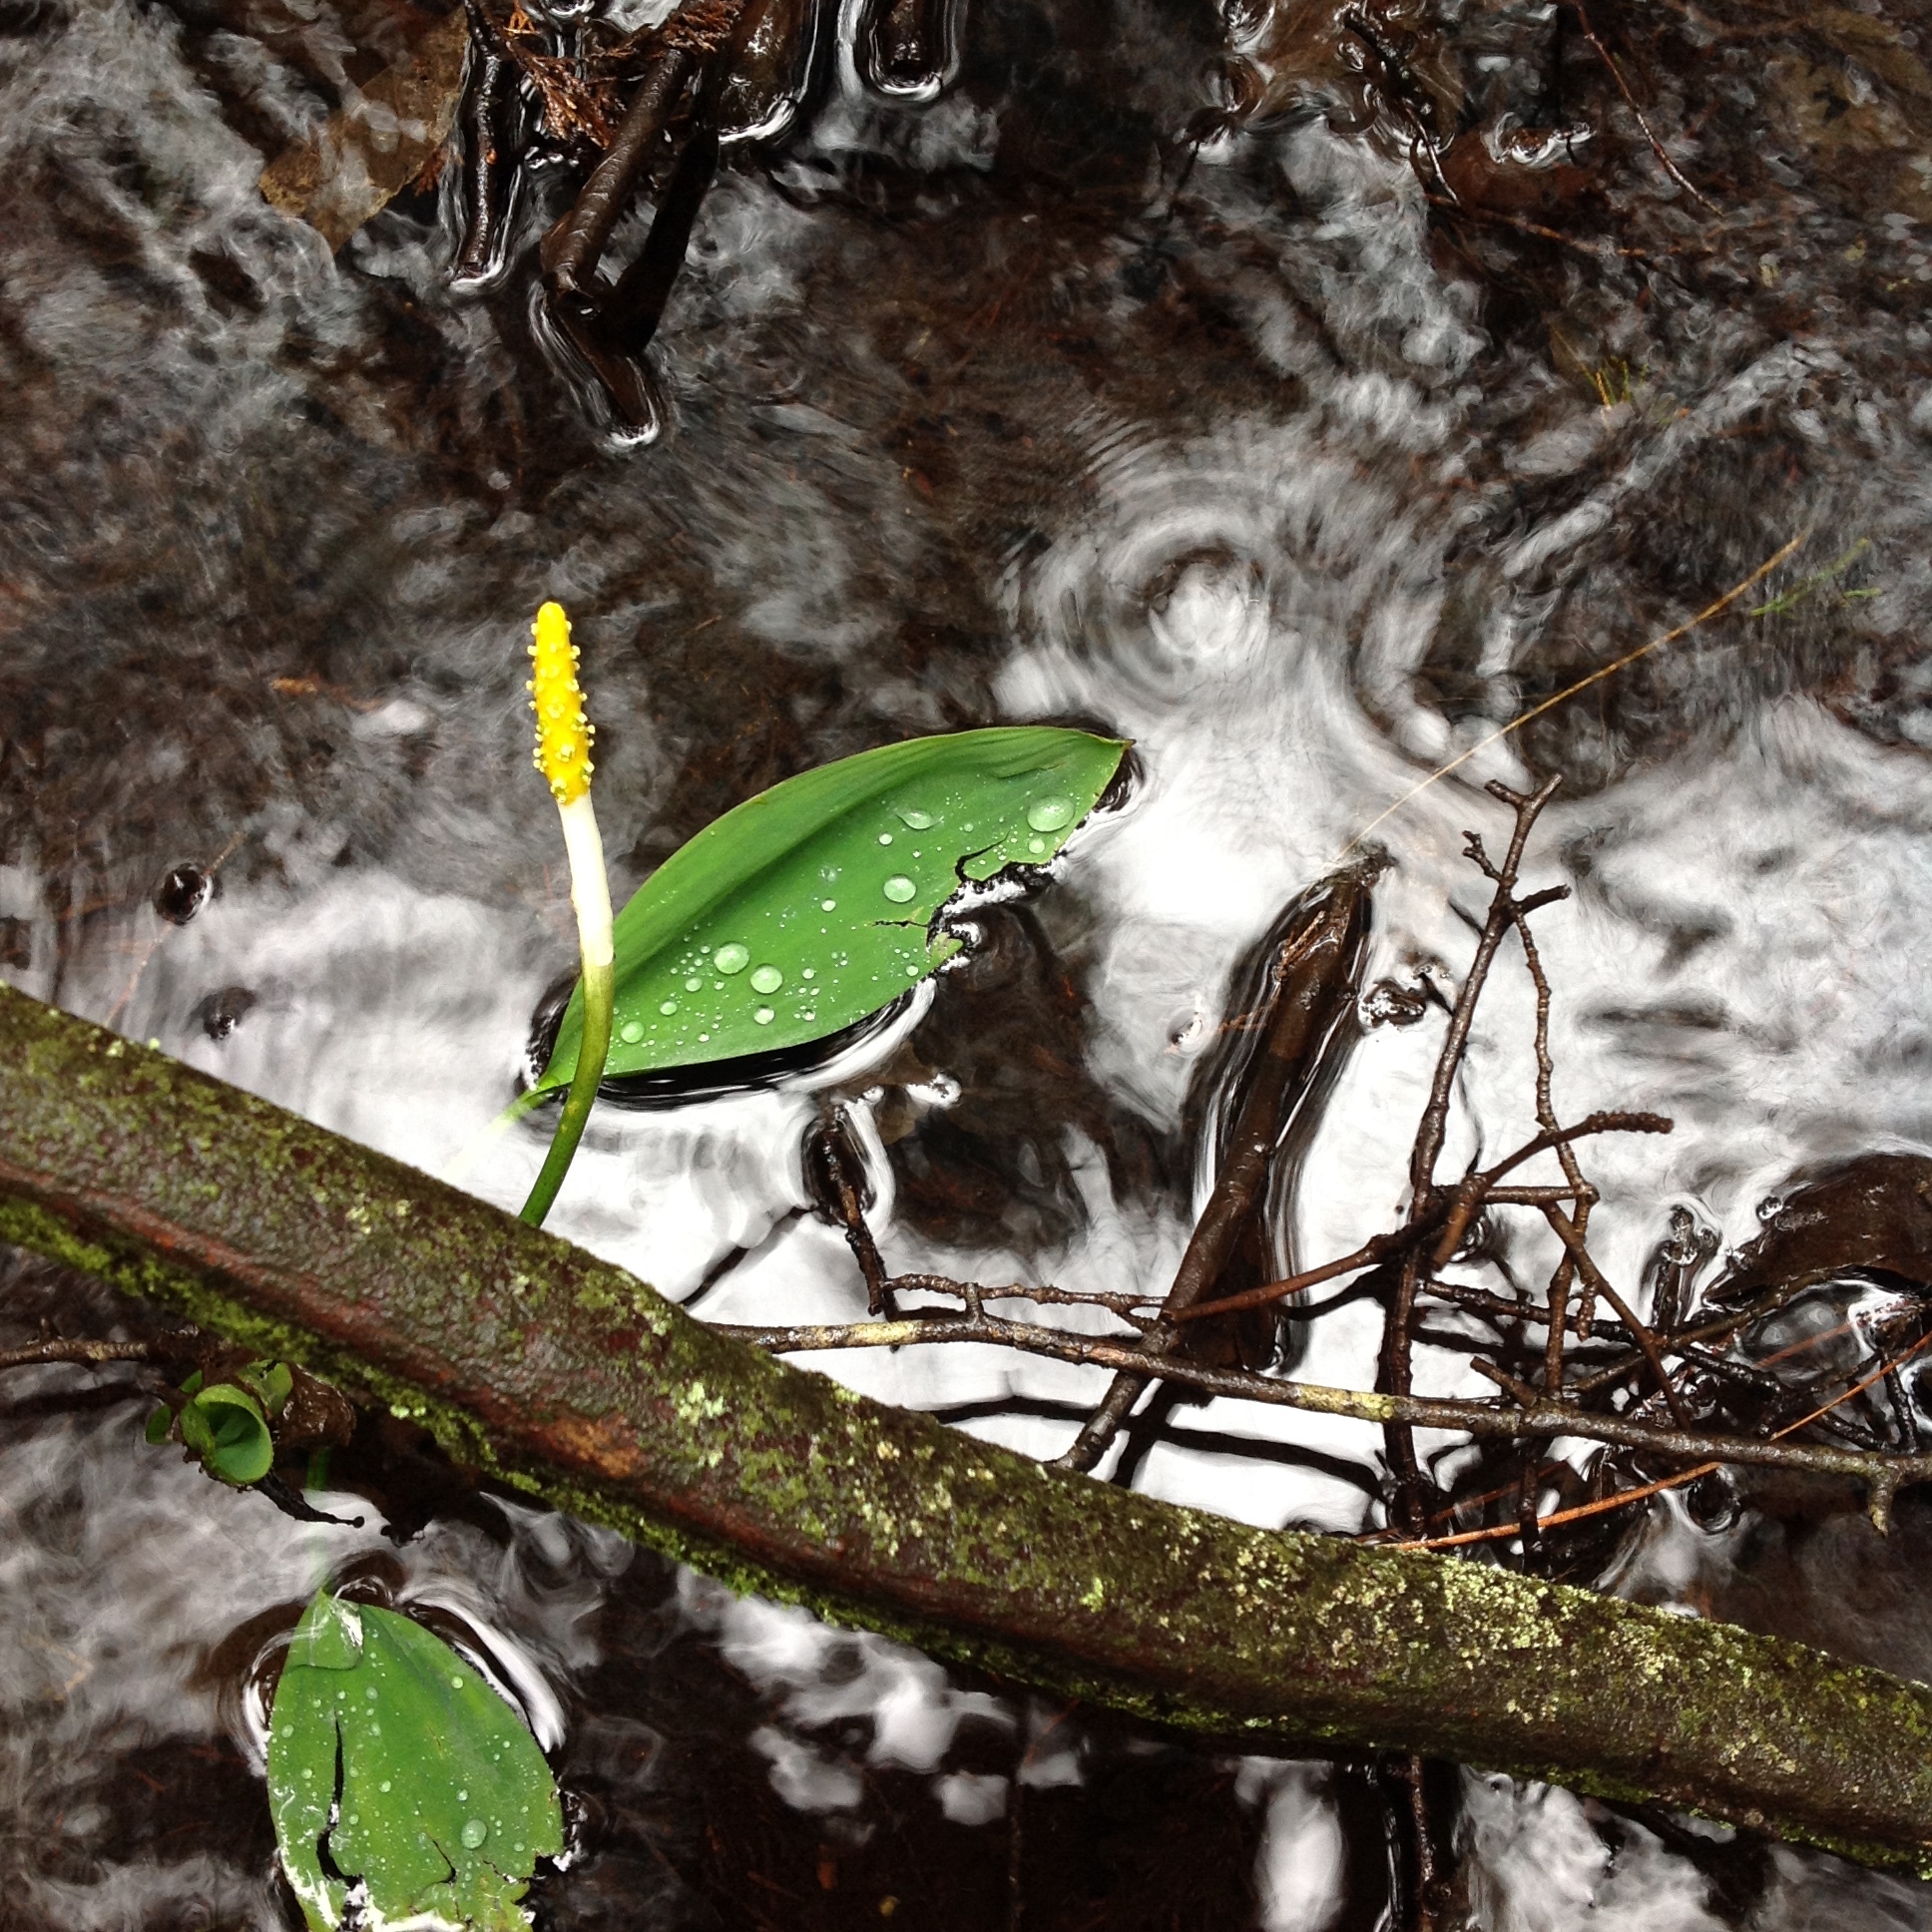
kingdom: Plantae
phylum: Tracheophyta
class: Liliopsida
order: Alismatales
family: Araceae
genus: Orontium
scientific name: Orontium aquaticum
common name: Golden-club
